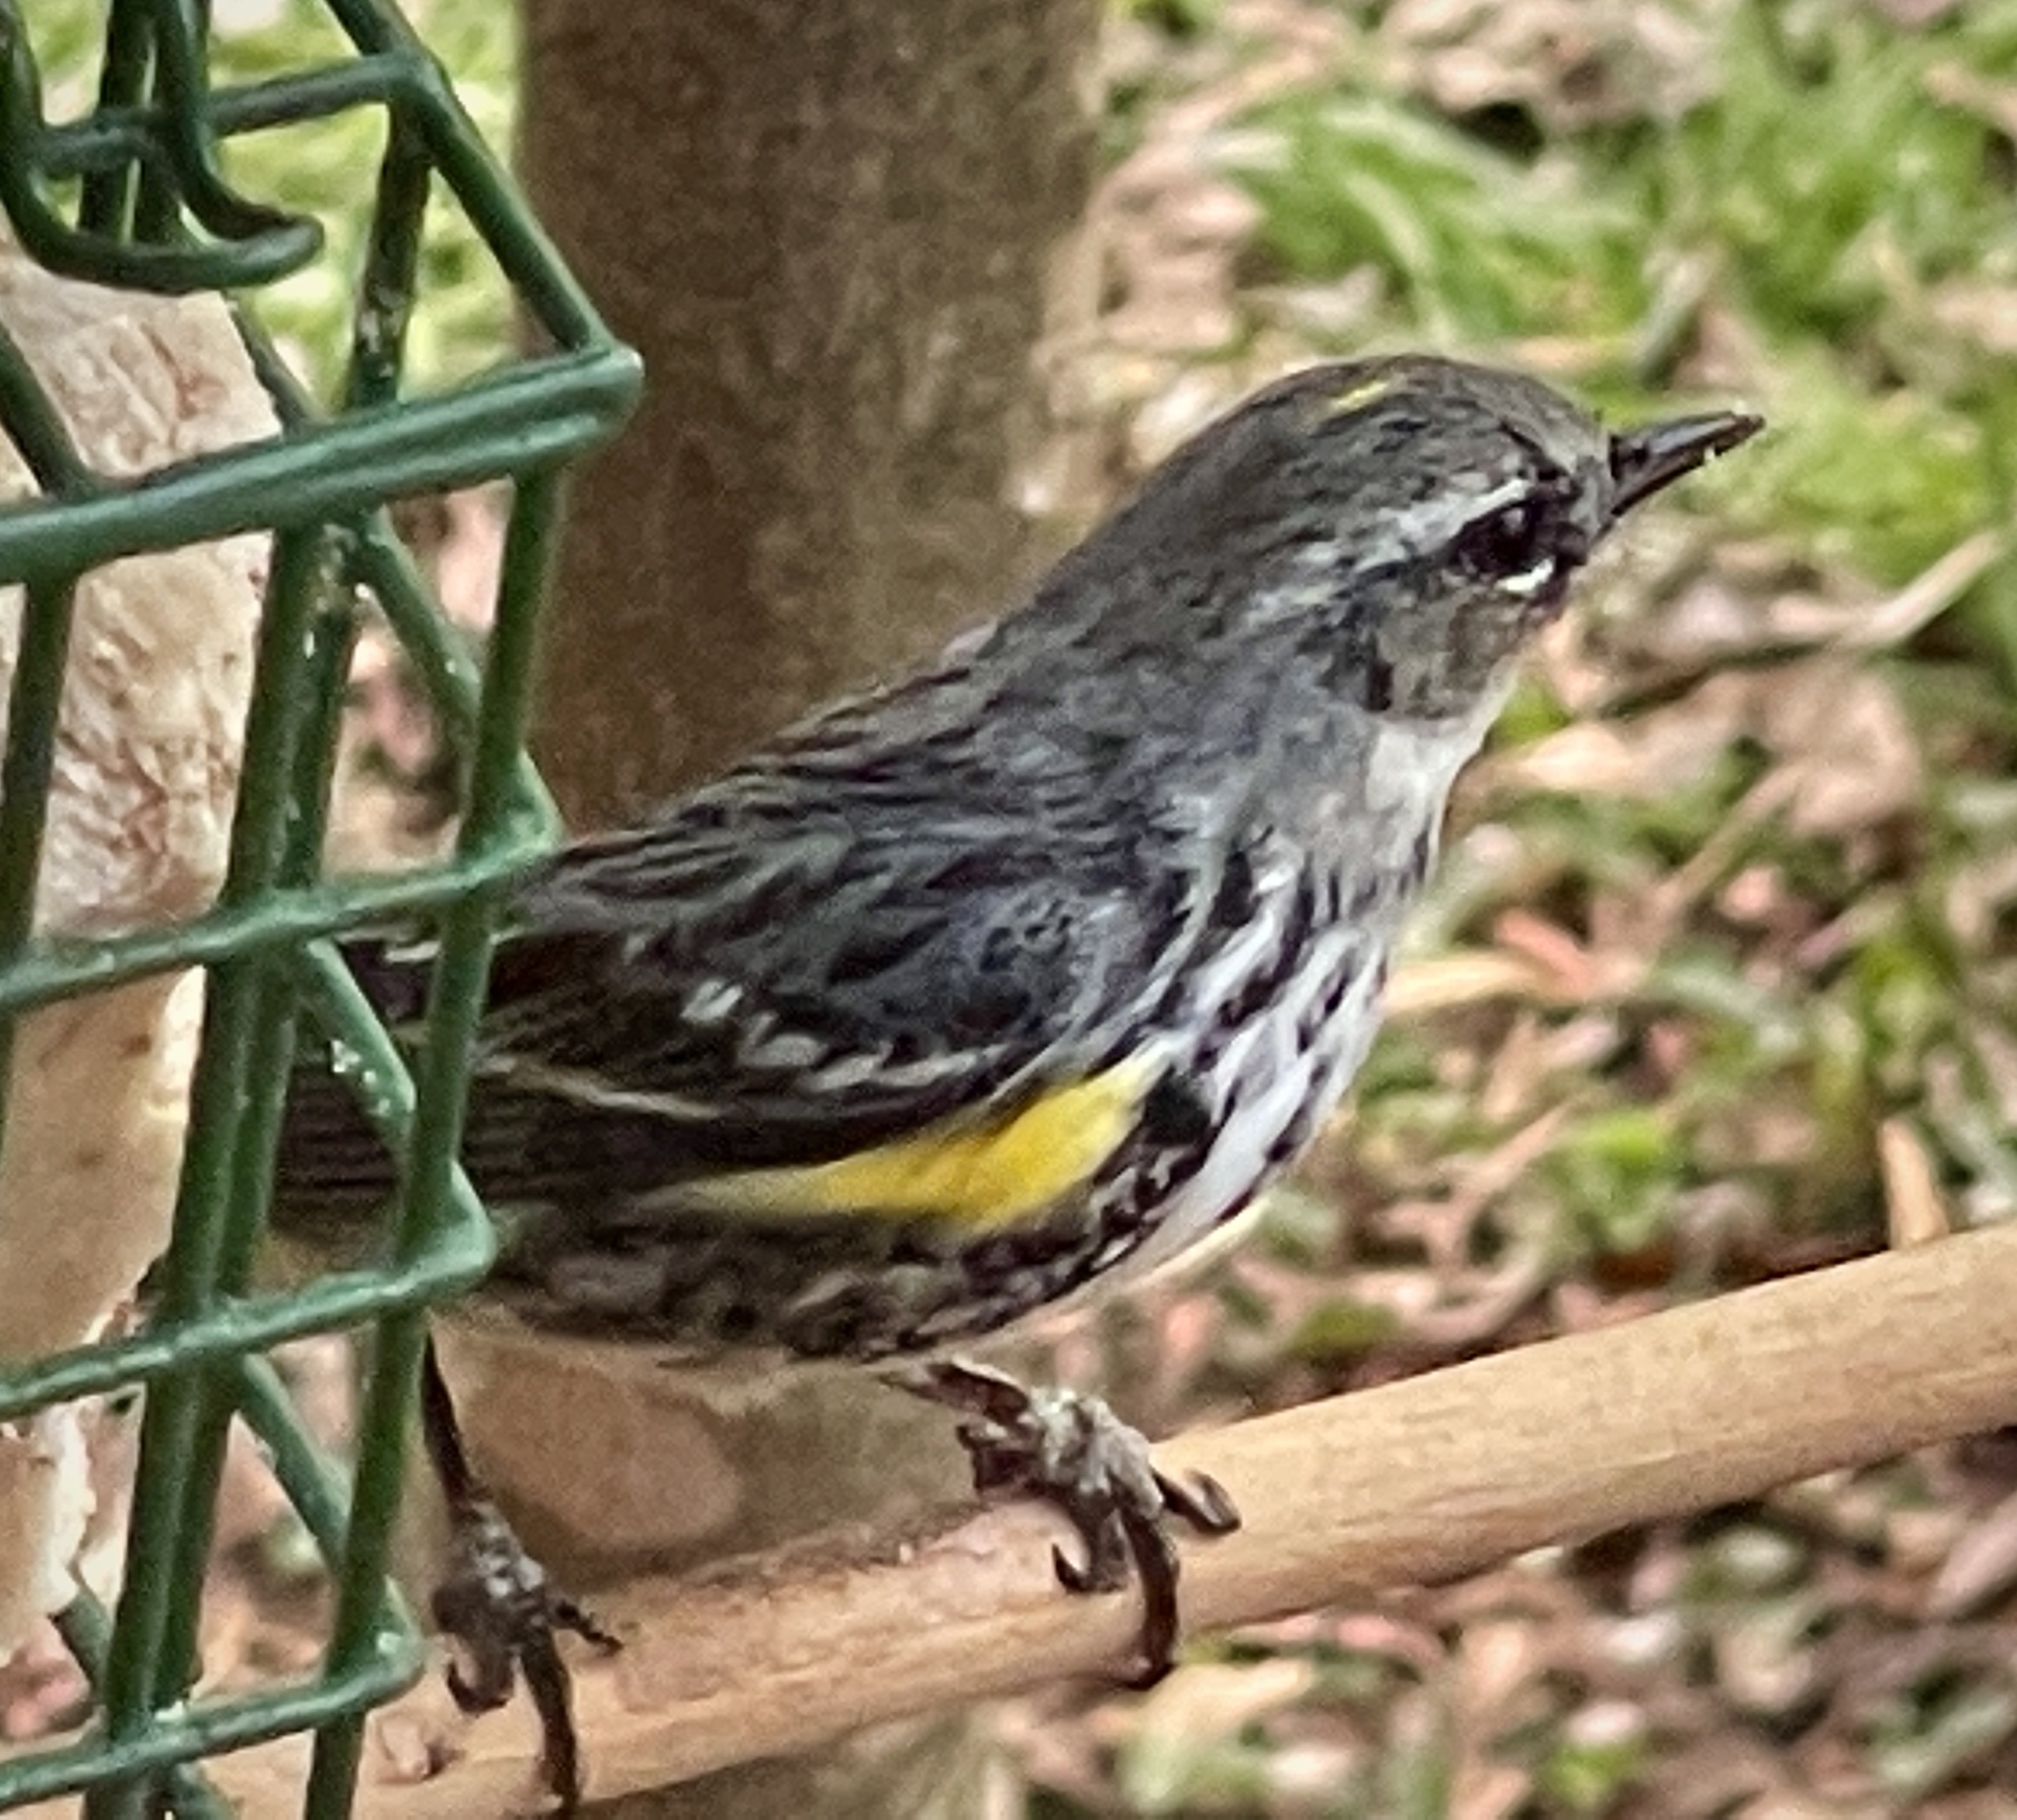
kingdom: Animalia
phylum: Chordata
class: Aves
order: Passeriformes
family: Parulidae
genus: Setophaga
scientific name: Setophaga coronata
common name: Myrtle warbler
